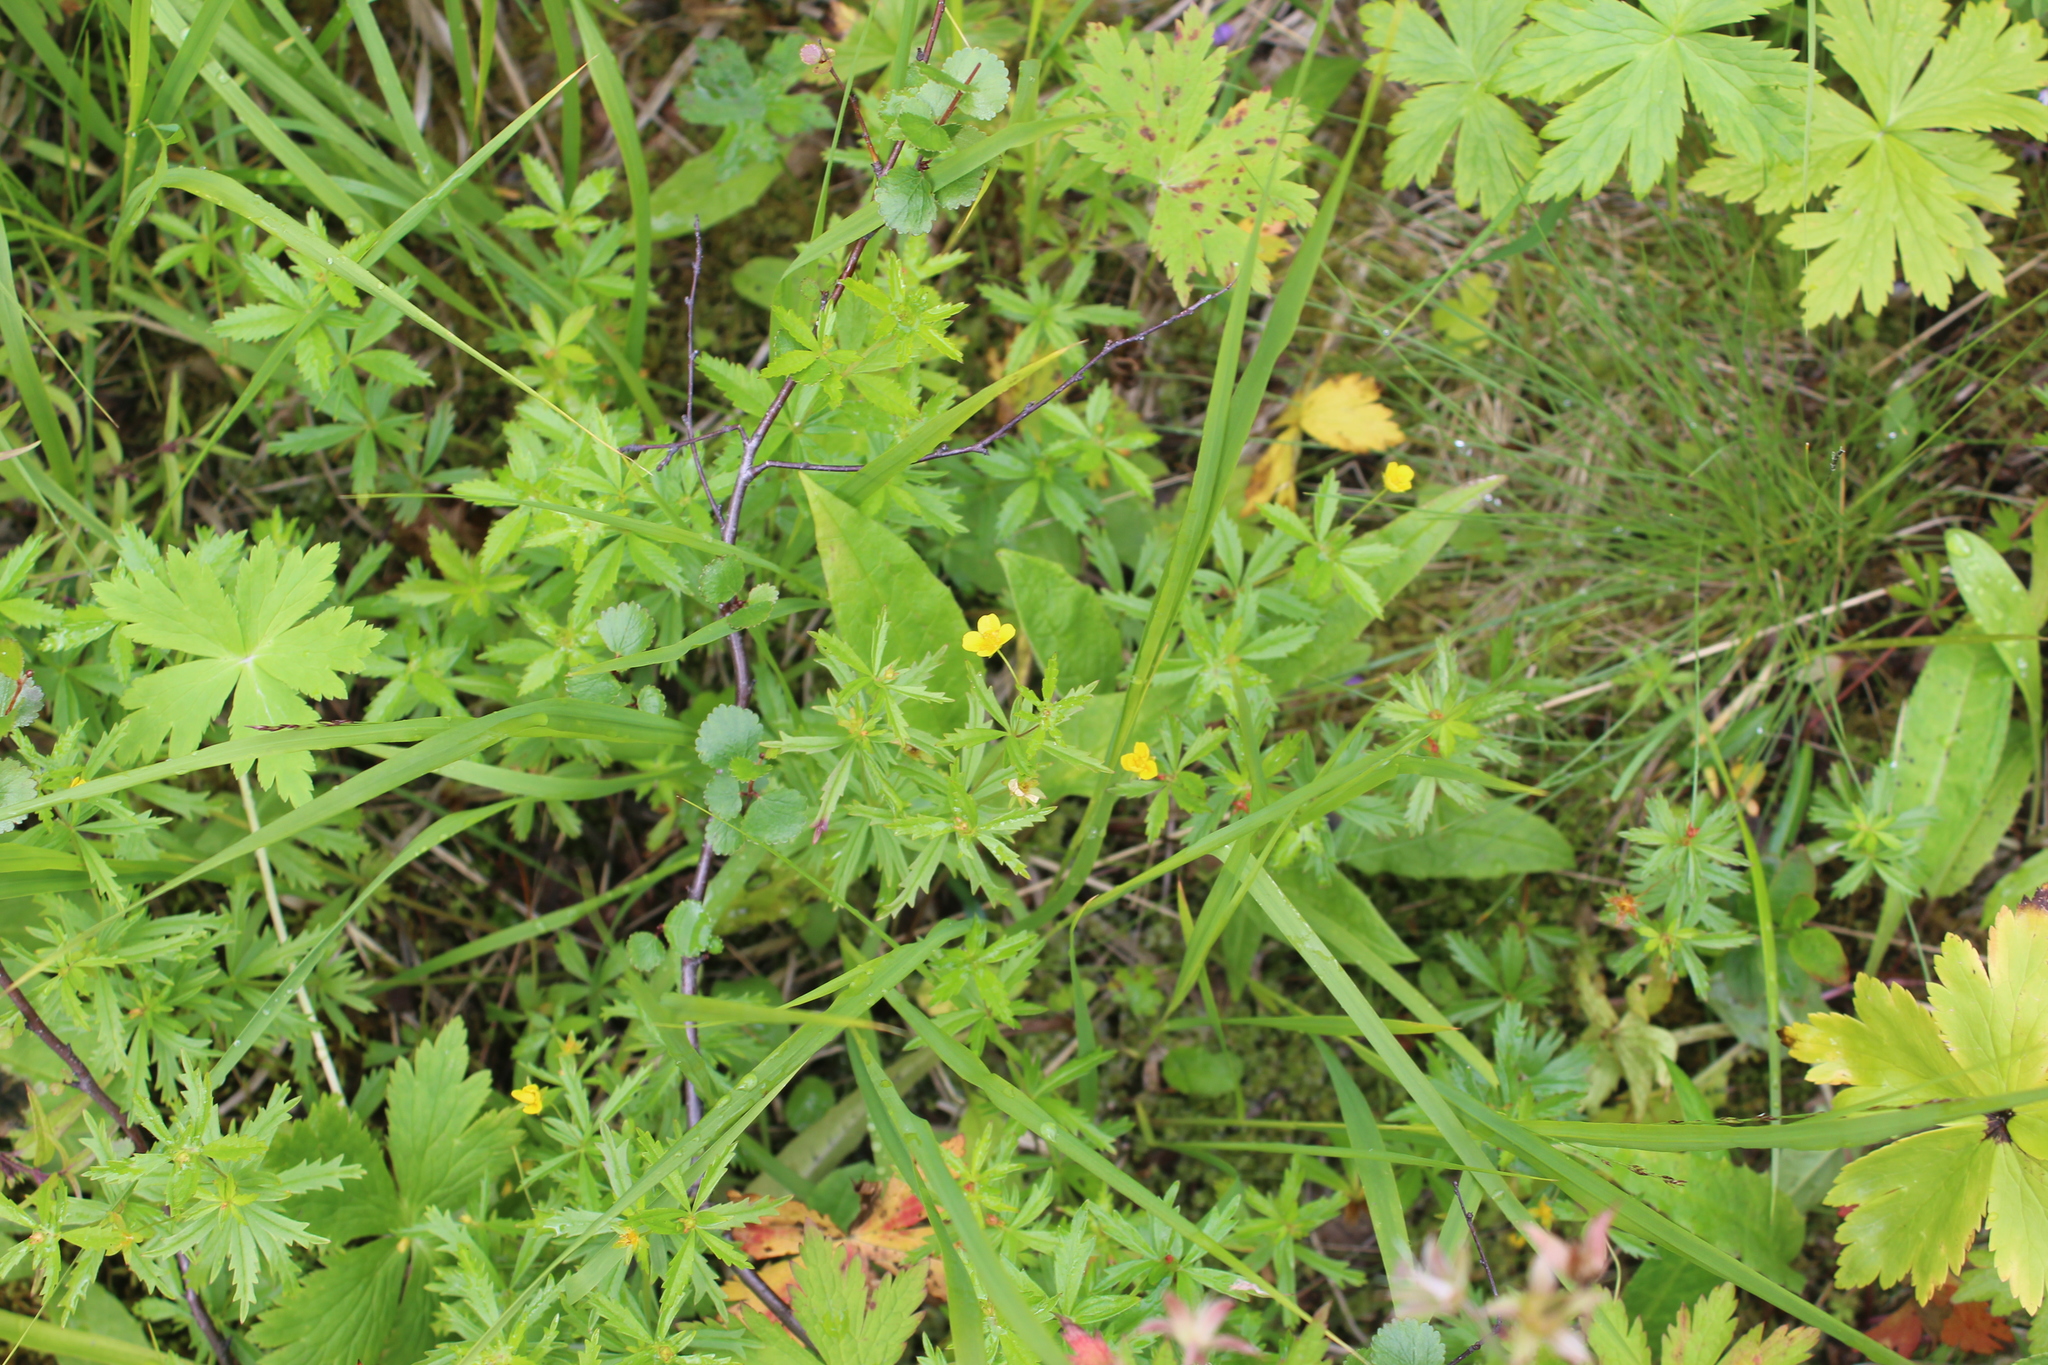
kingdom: Plantae
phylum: Tracheophyta
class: Magnoliopsida
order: Rosales
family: Rosaceae
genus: Potentilla
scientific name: Potentilla erecta
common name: Tormentil
